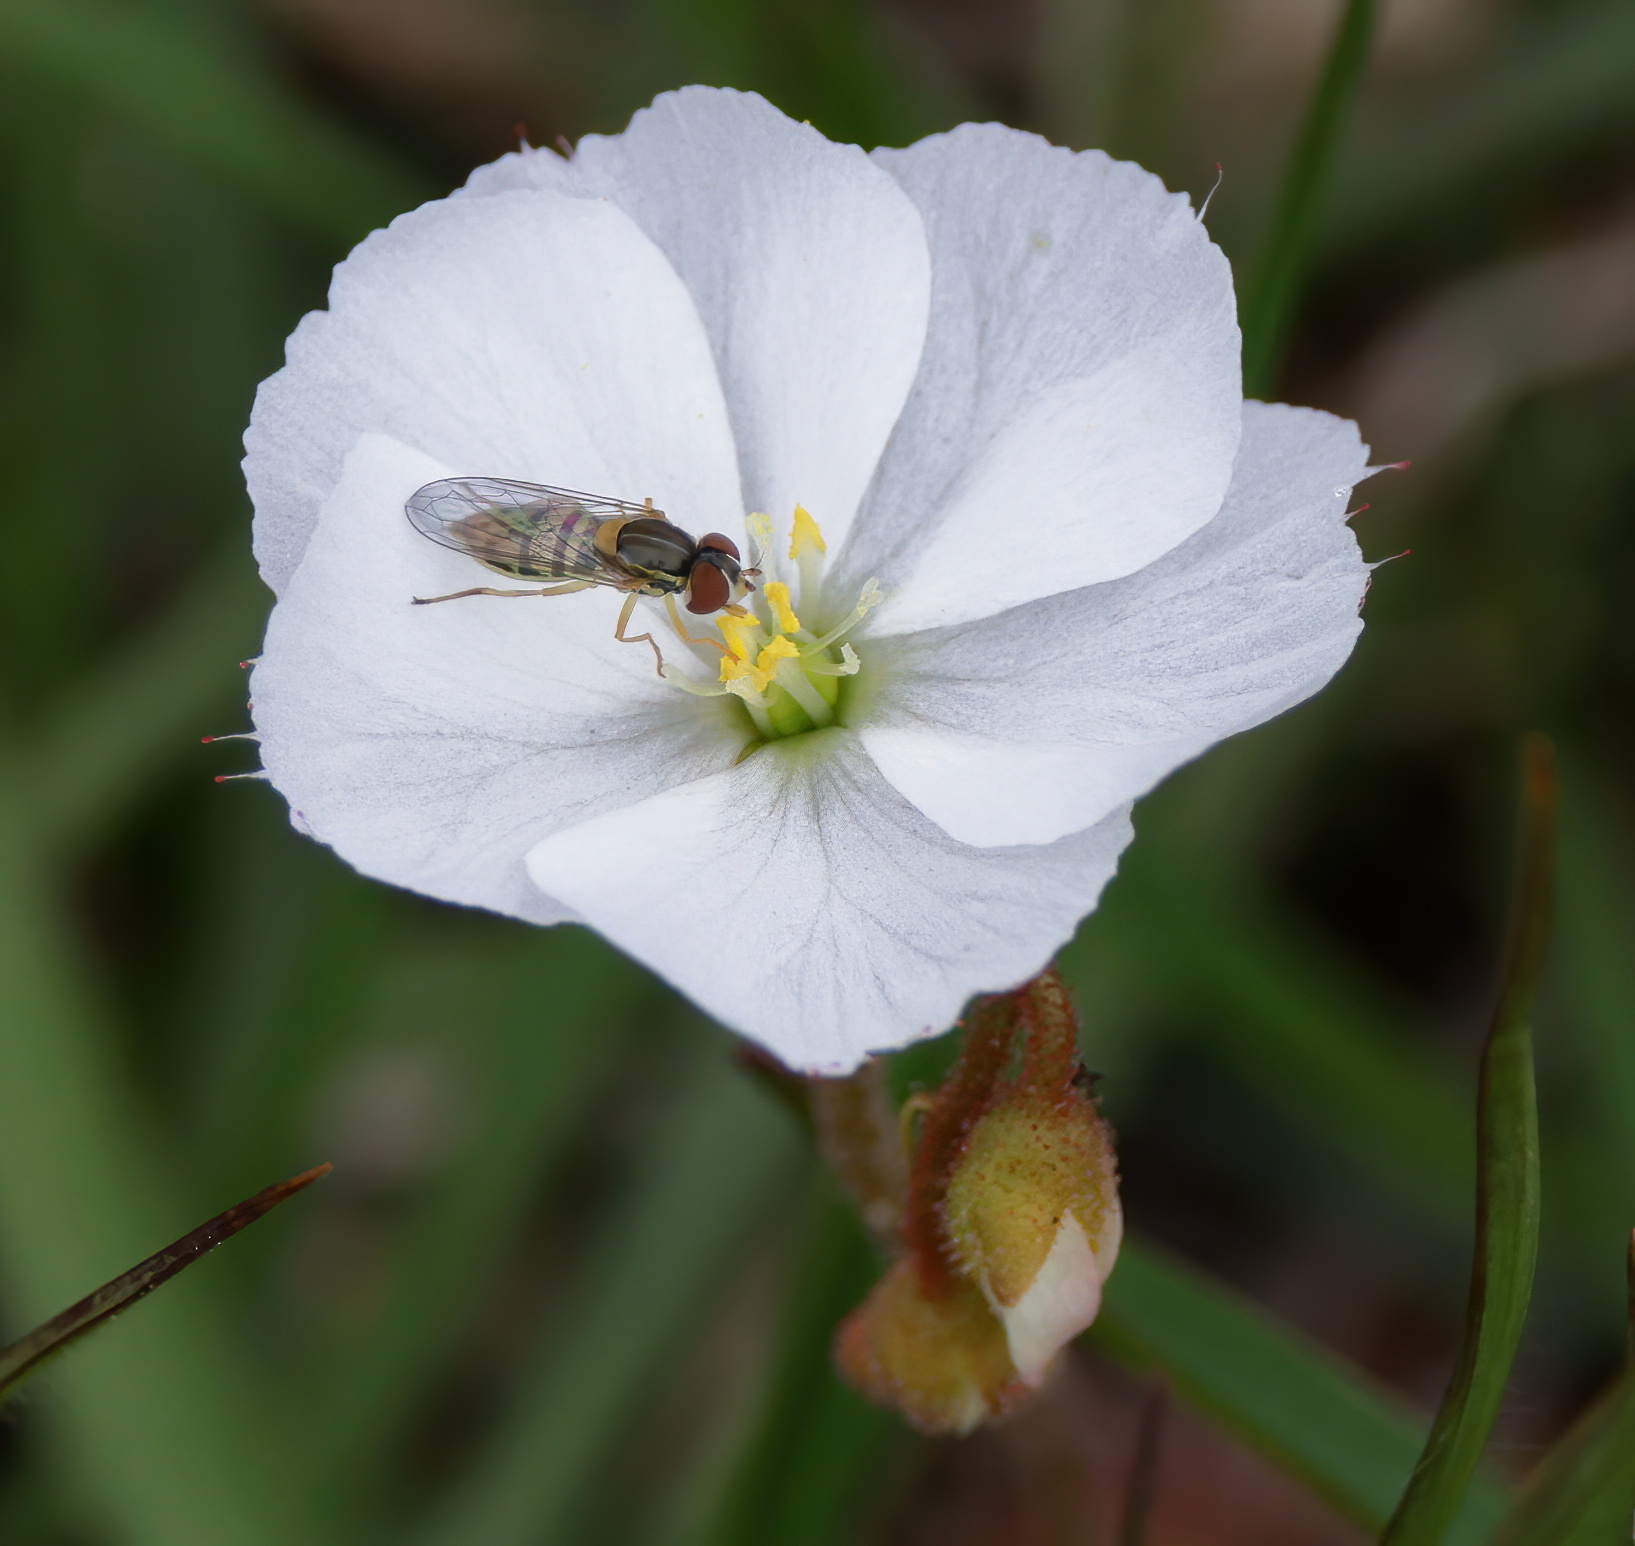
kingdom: Animalia
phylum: Arthropoda
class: Insecta
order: Diptera
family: Syrphidae
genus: Toxomerus
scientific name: Toxomerus marginatus
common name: Syrphid fly
